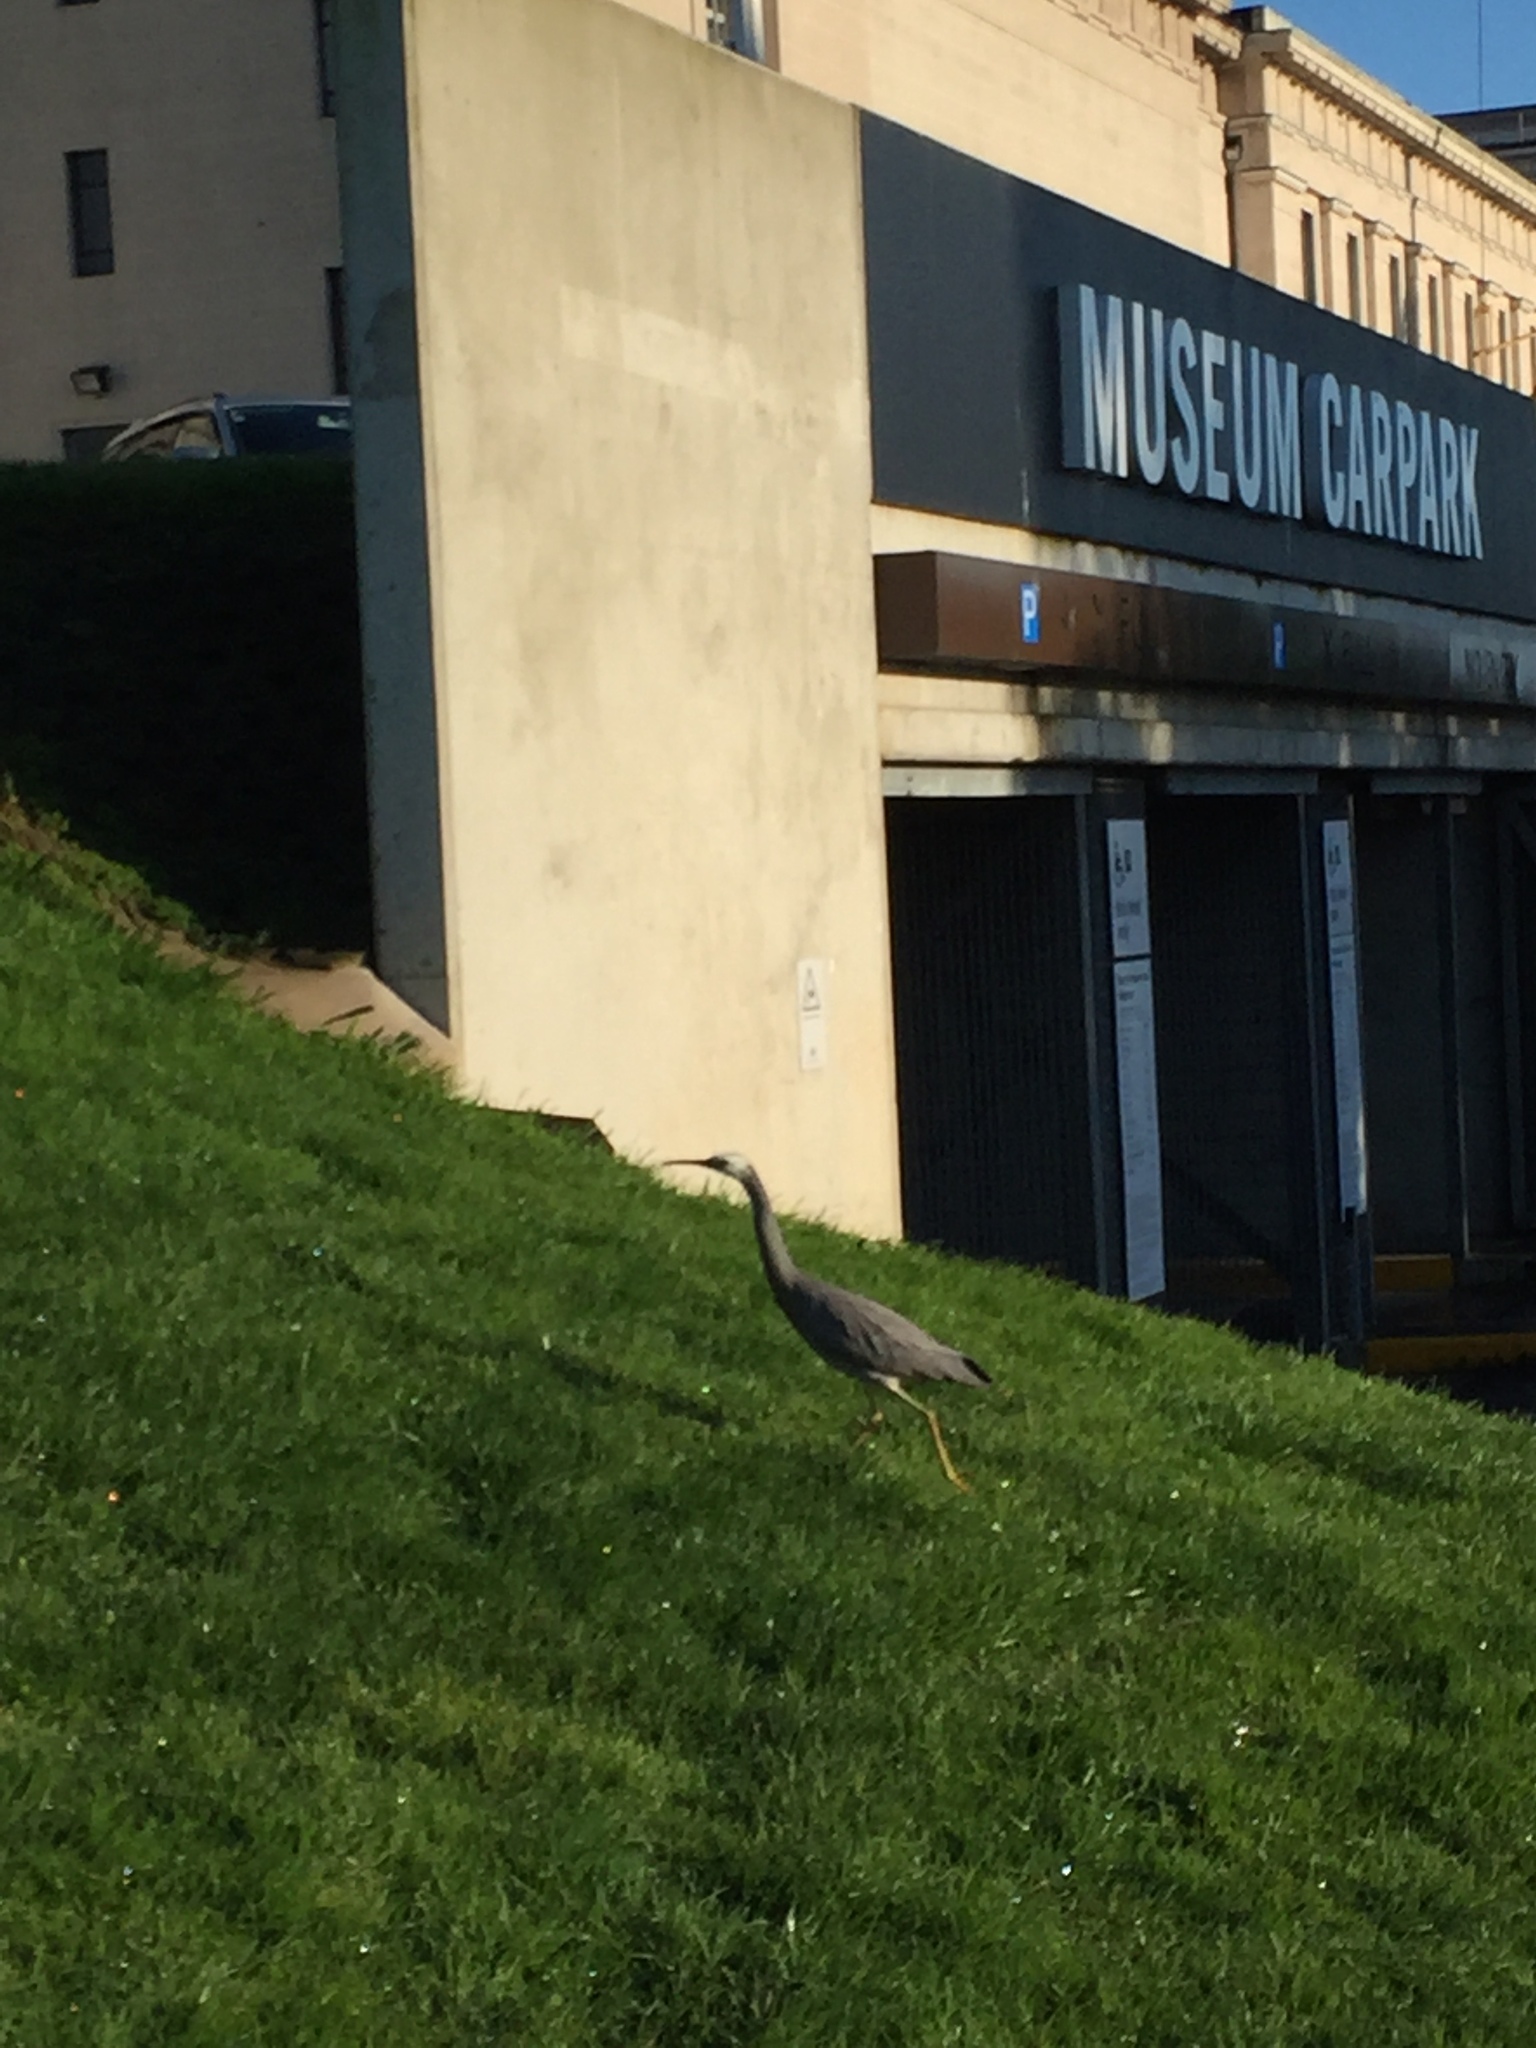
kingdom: Animalia
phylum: Chordata
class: Aves
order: Pelecaniformes
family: Ardeidae
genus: Egretta
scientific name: Egretta novaehollandiae
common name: White-faced heron
